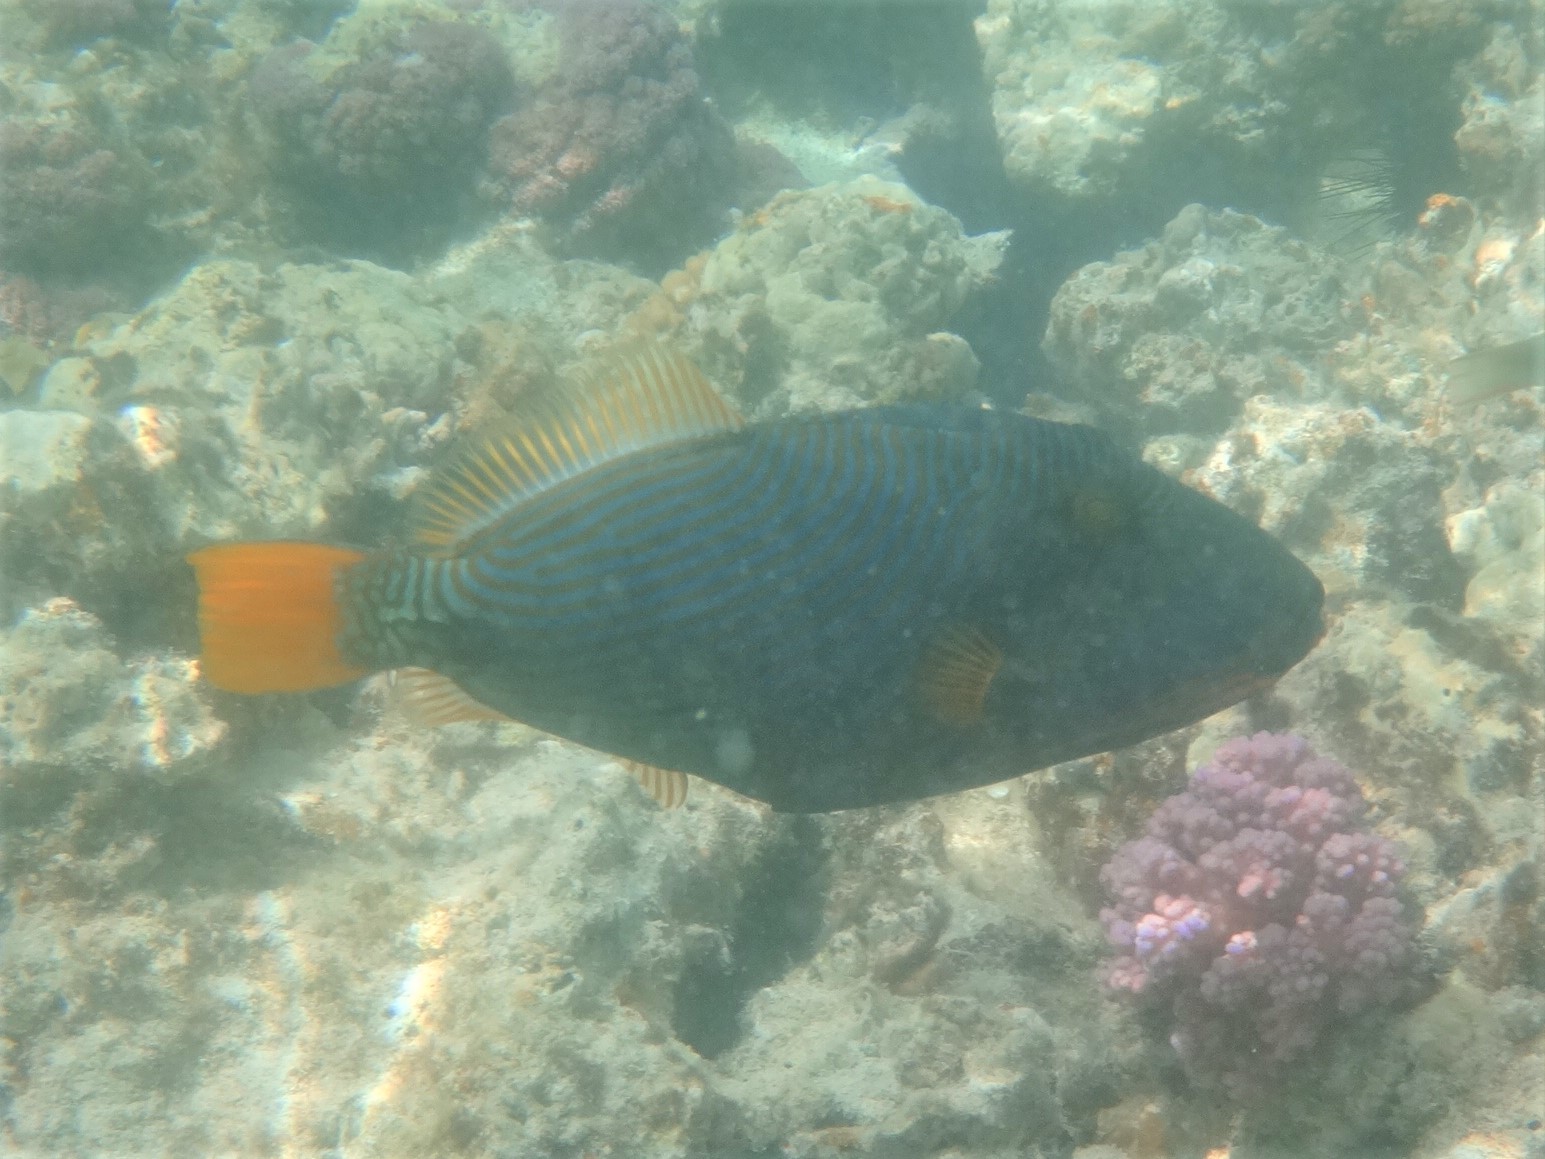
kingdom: Animalia
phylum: Chordata
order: Tetraodontiformes
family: Balistidae
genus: Balistapus
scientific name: Balistapus undulatus
